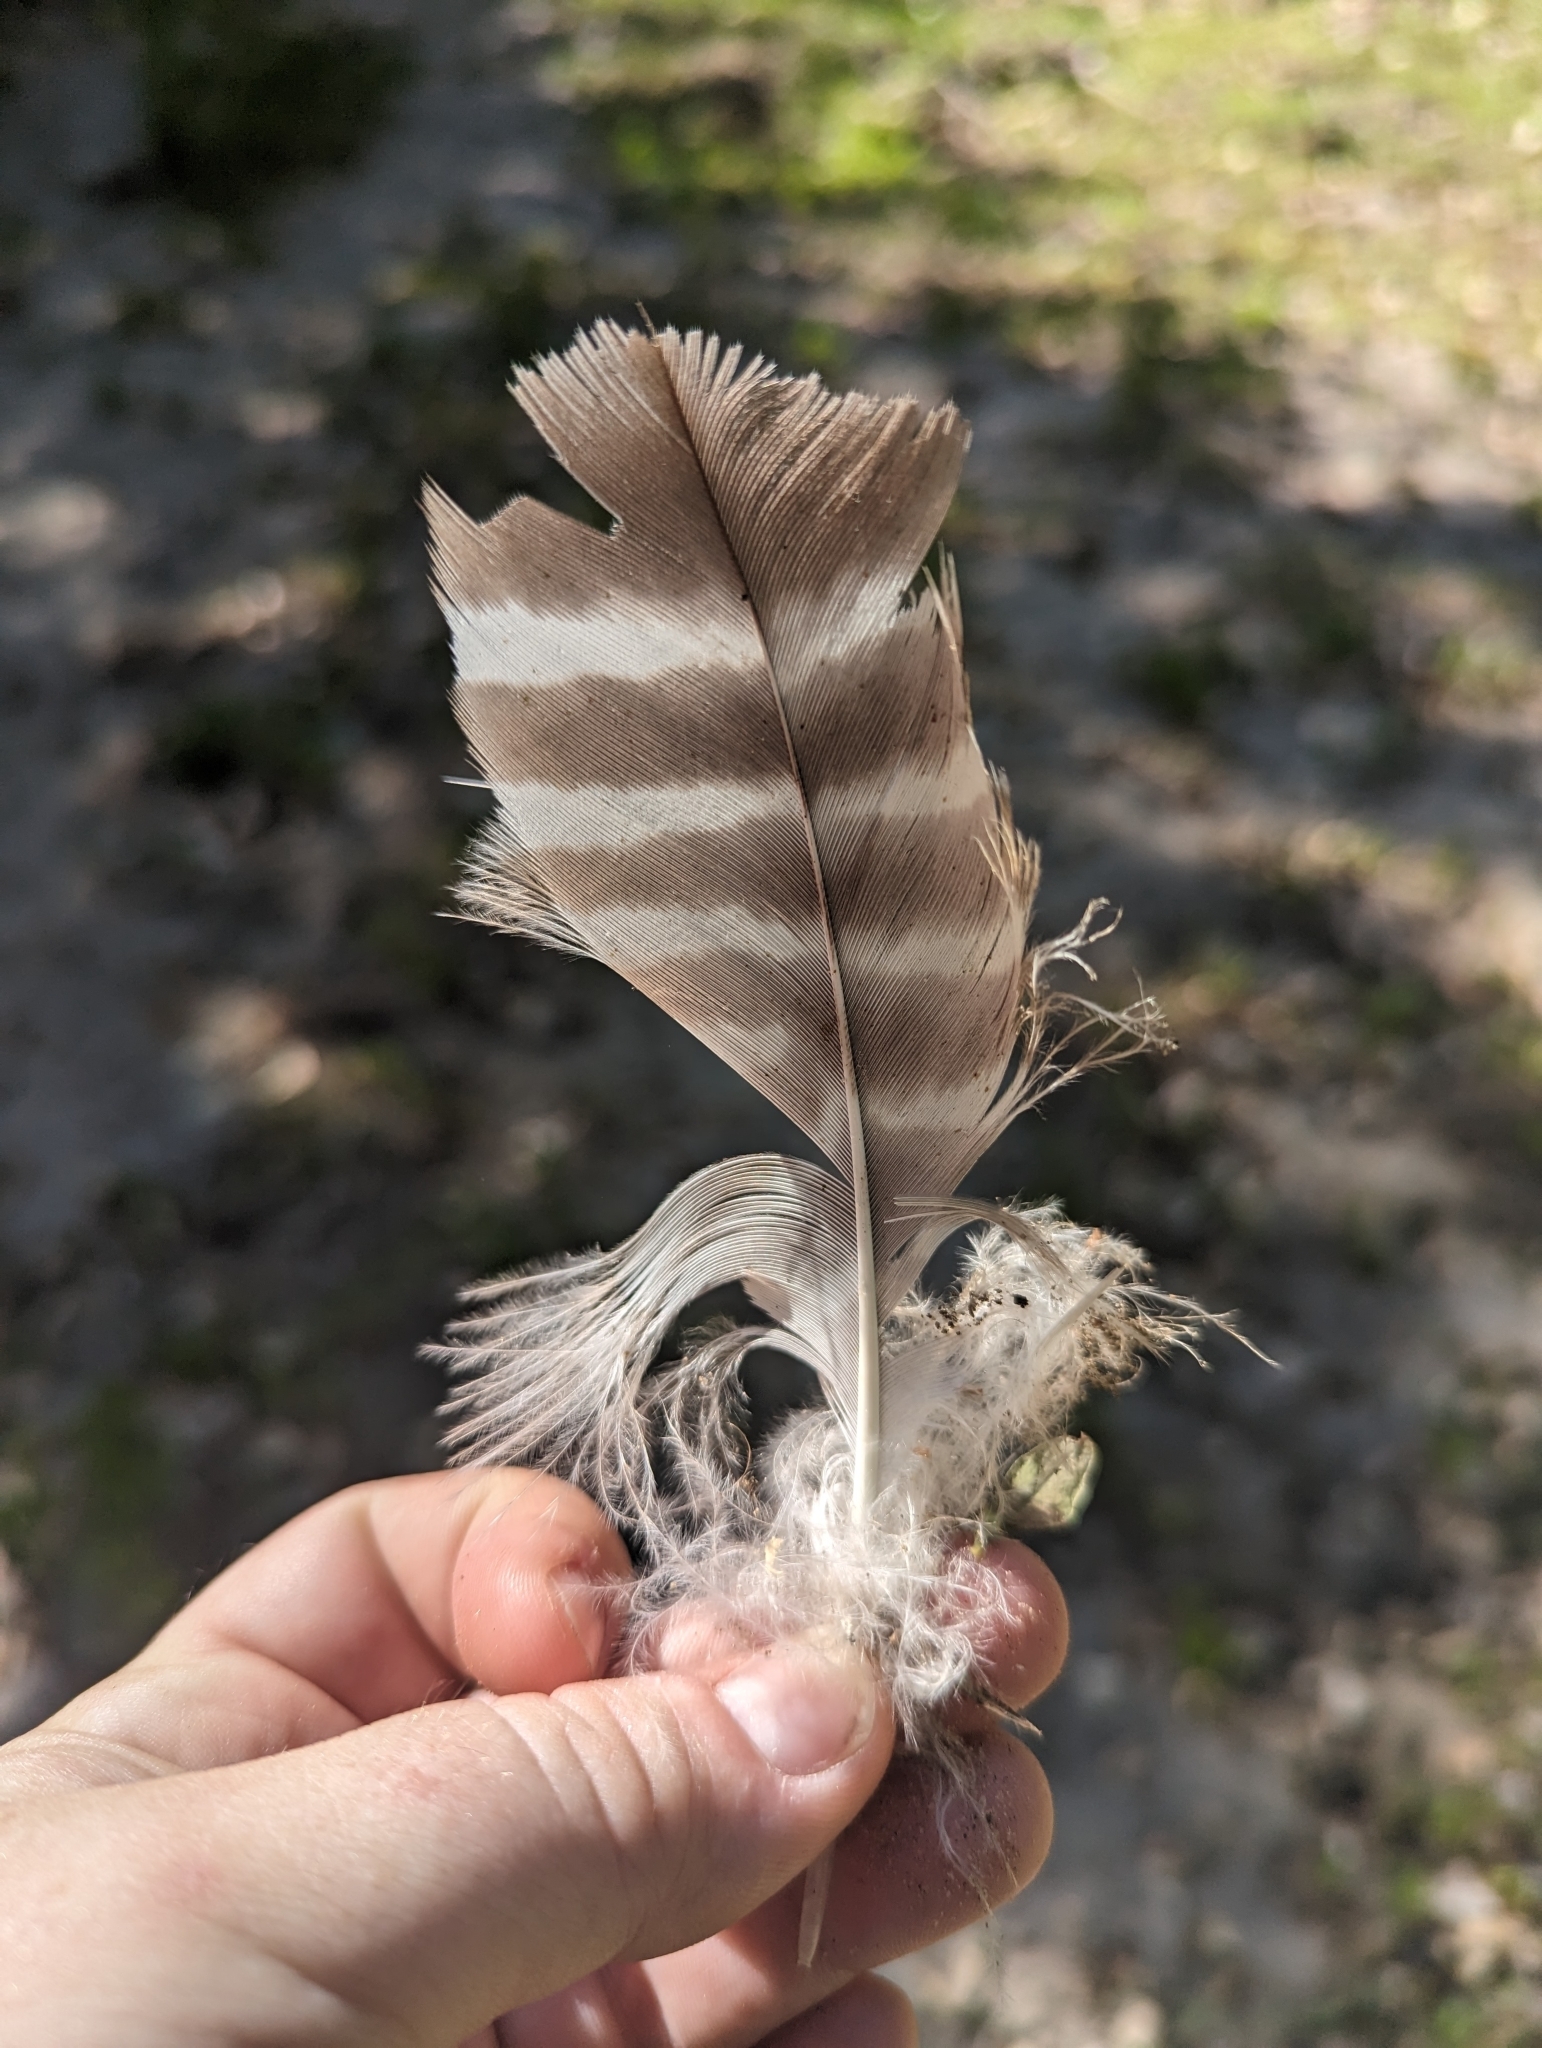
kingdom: Animalia
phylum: Chordata
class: Aves
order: Accipitriformes
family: Accipitridae
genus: Buteo
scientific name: Buteo lineatus
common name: Red-shouldered hawk
